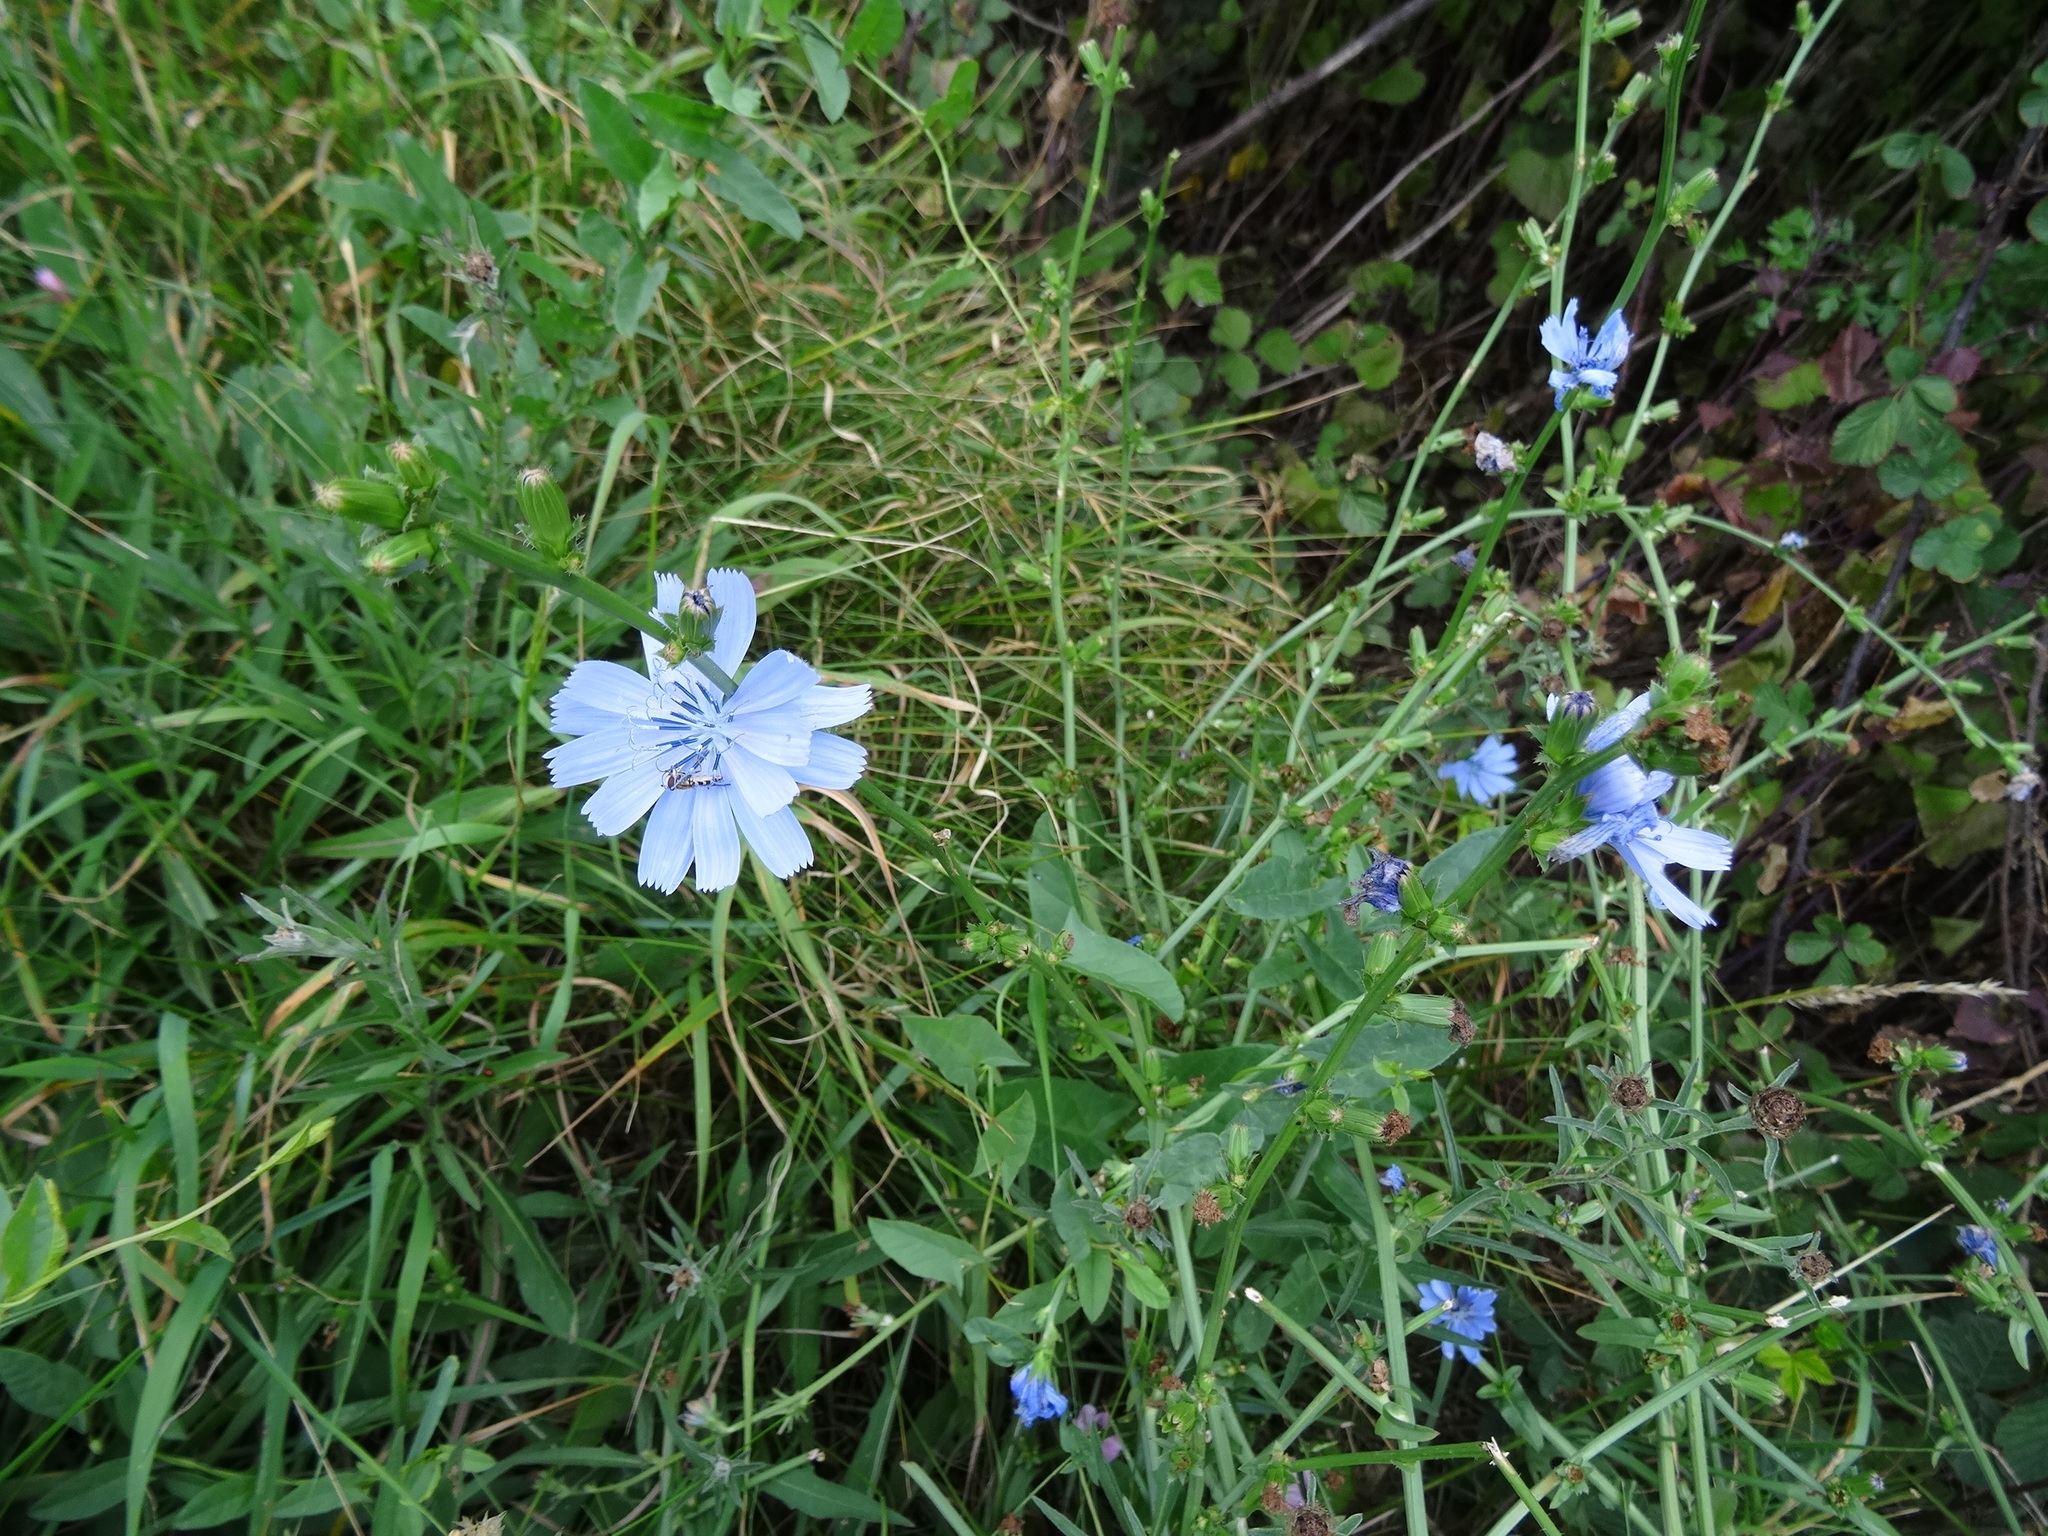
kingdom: Plantae
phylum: Tracheophyta
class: Magnoliopsida
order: Asterales
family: Asteraceae
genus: Cichorium
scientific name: Cichorium intybus
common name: Chicory
